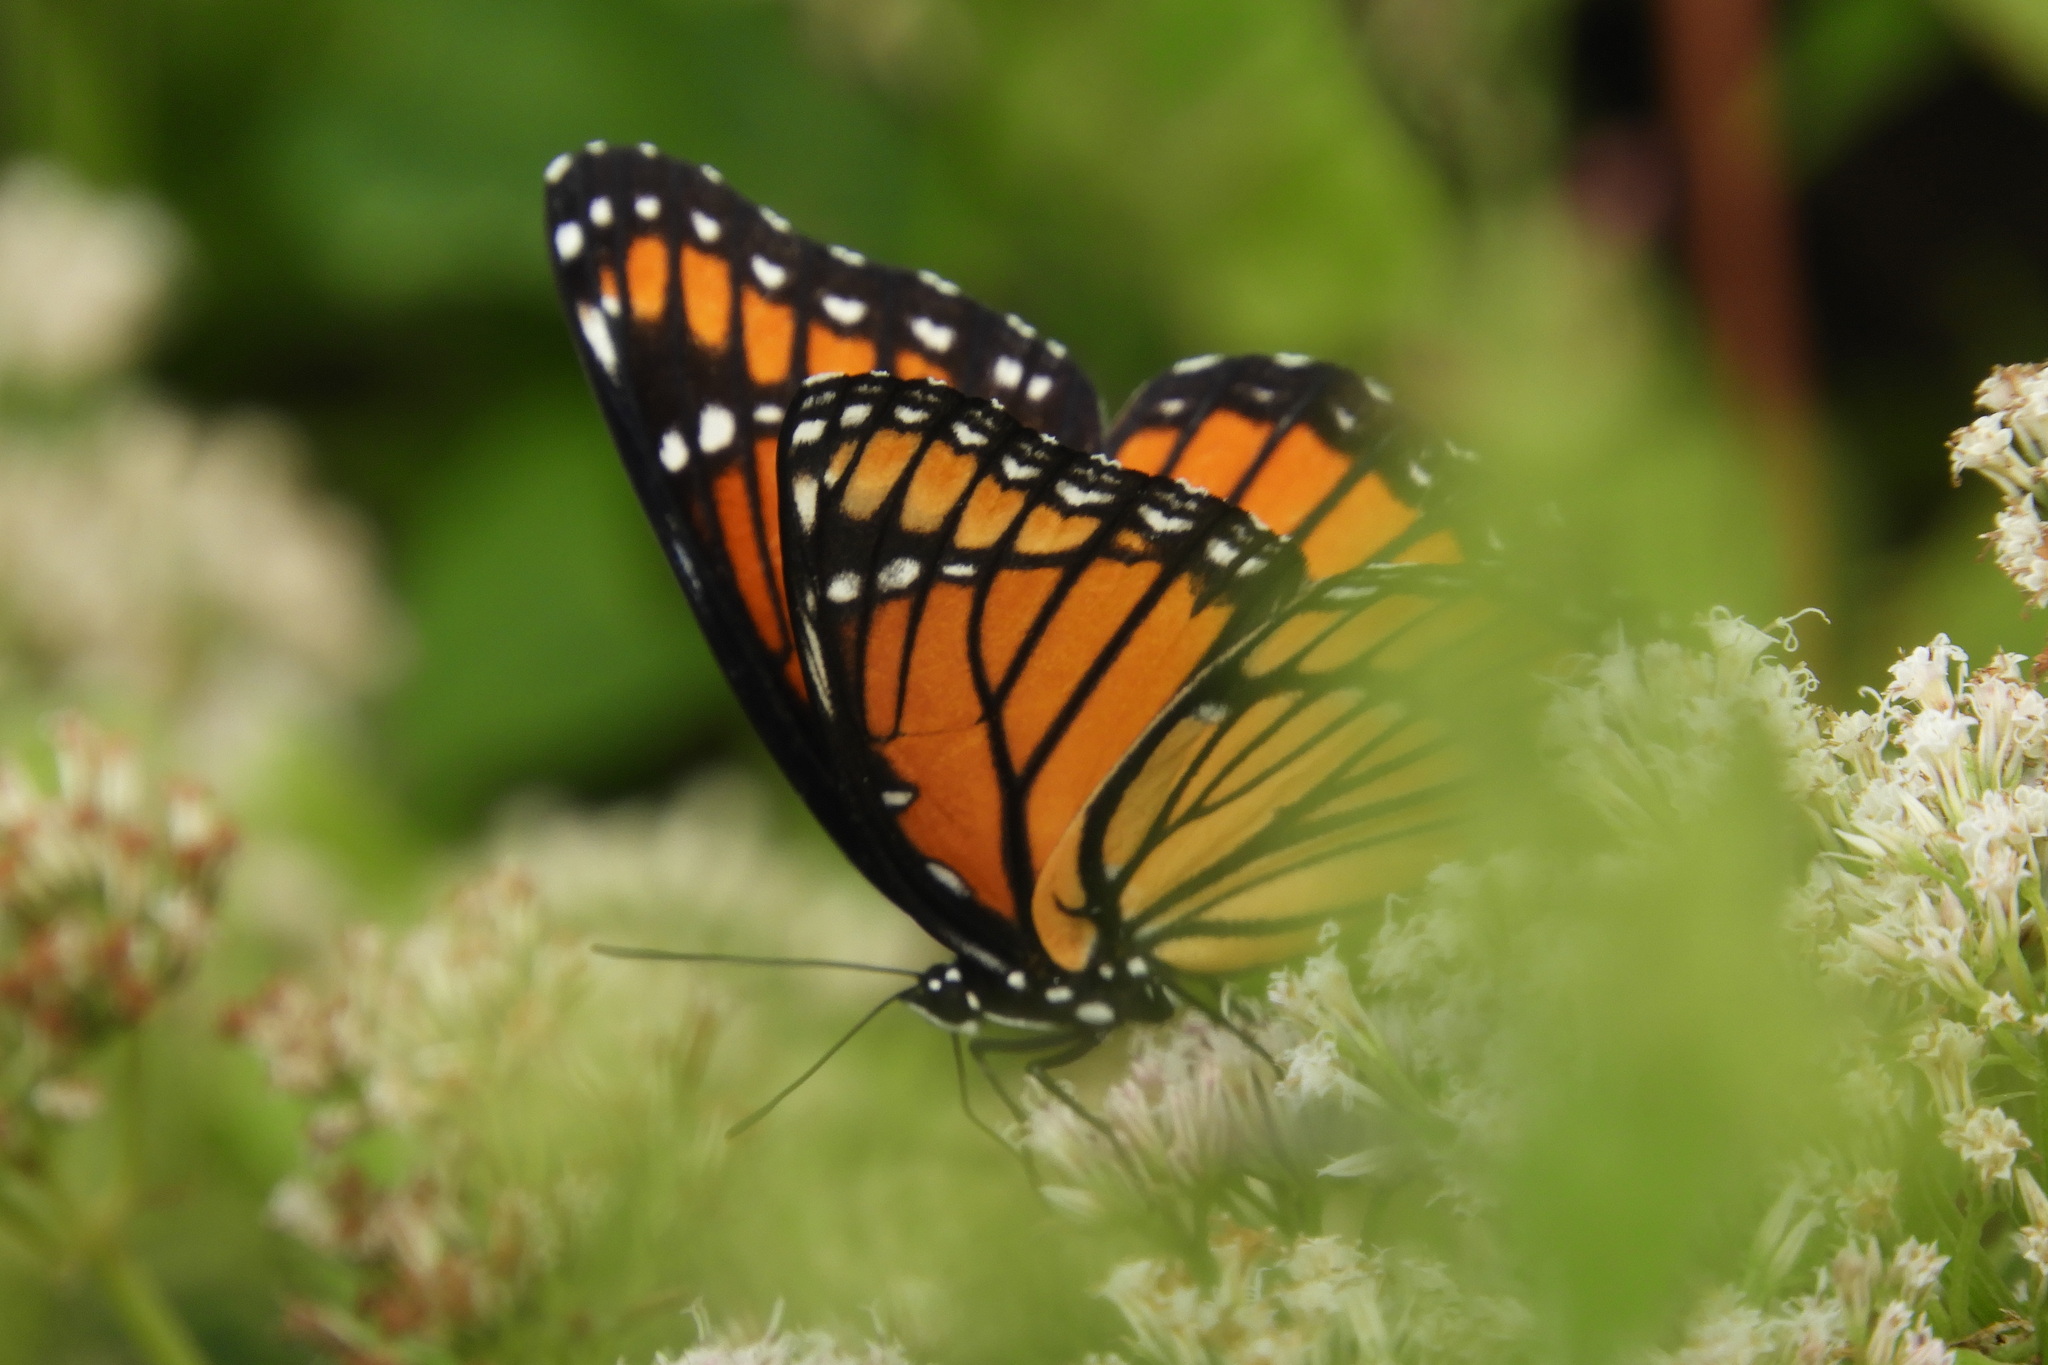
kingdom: Animalia
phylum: Arthropoda
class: Insecta
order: Lepidoptera
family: Nymphalidae
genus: Limenitis
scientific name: Limenitis archippus
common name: Viceroy
